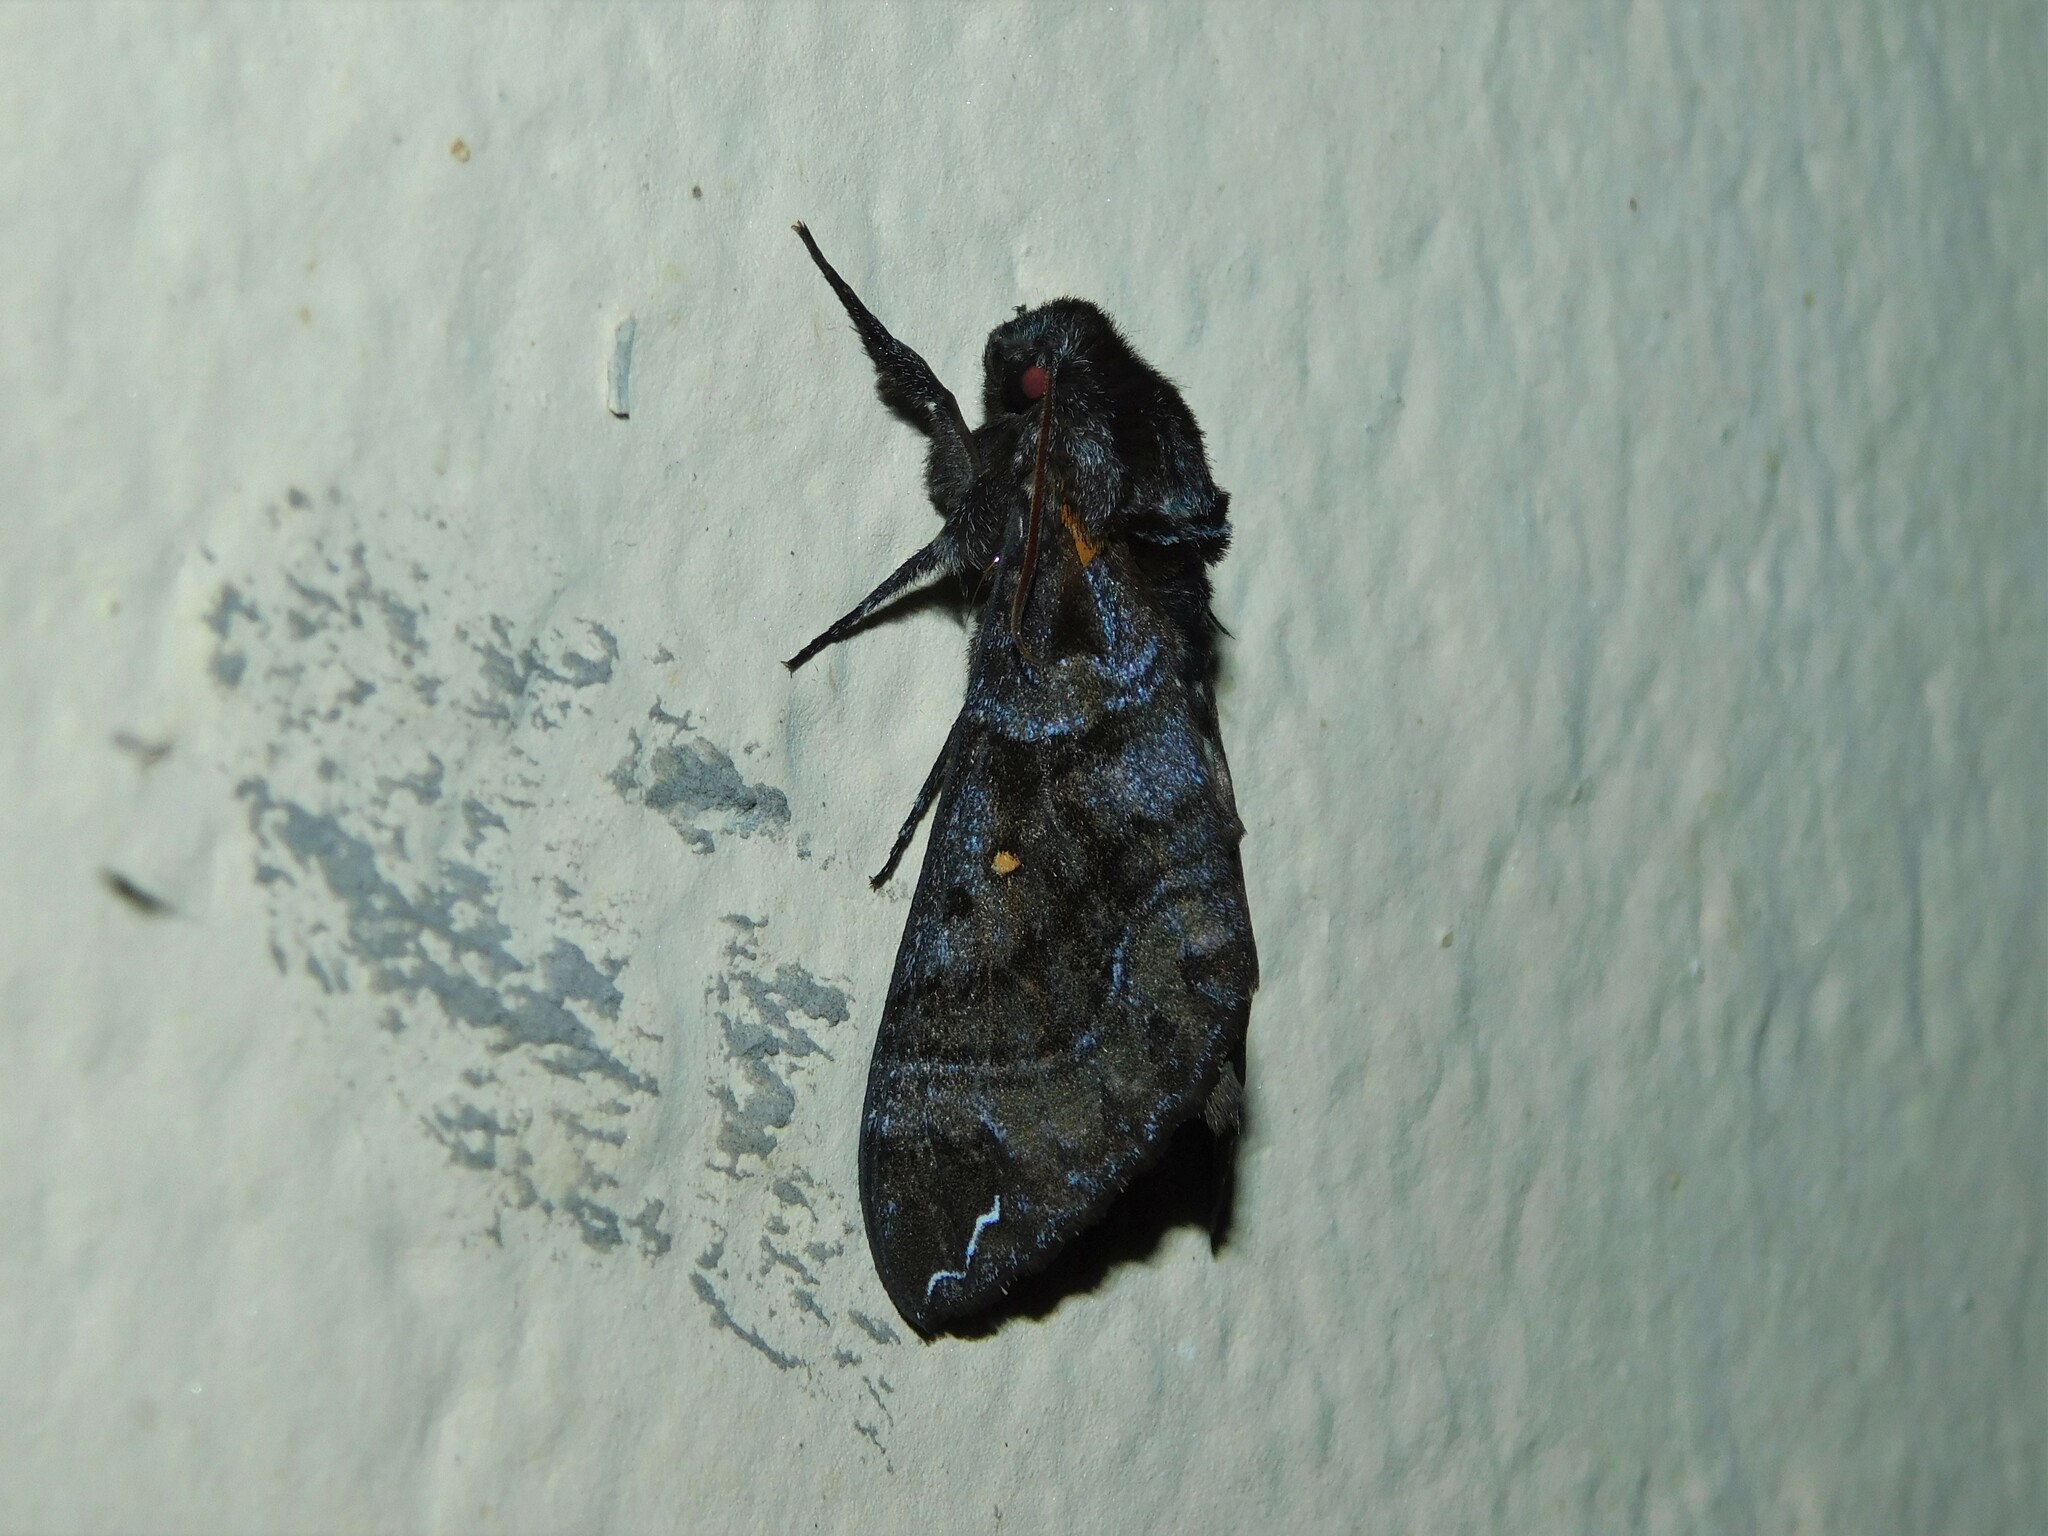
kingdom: Animalia
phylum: Arthropoda
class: Insecta
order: Lepidoptera
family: Sphingidae
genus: Dovania
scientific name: Dovania poecila
